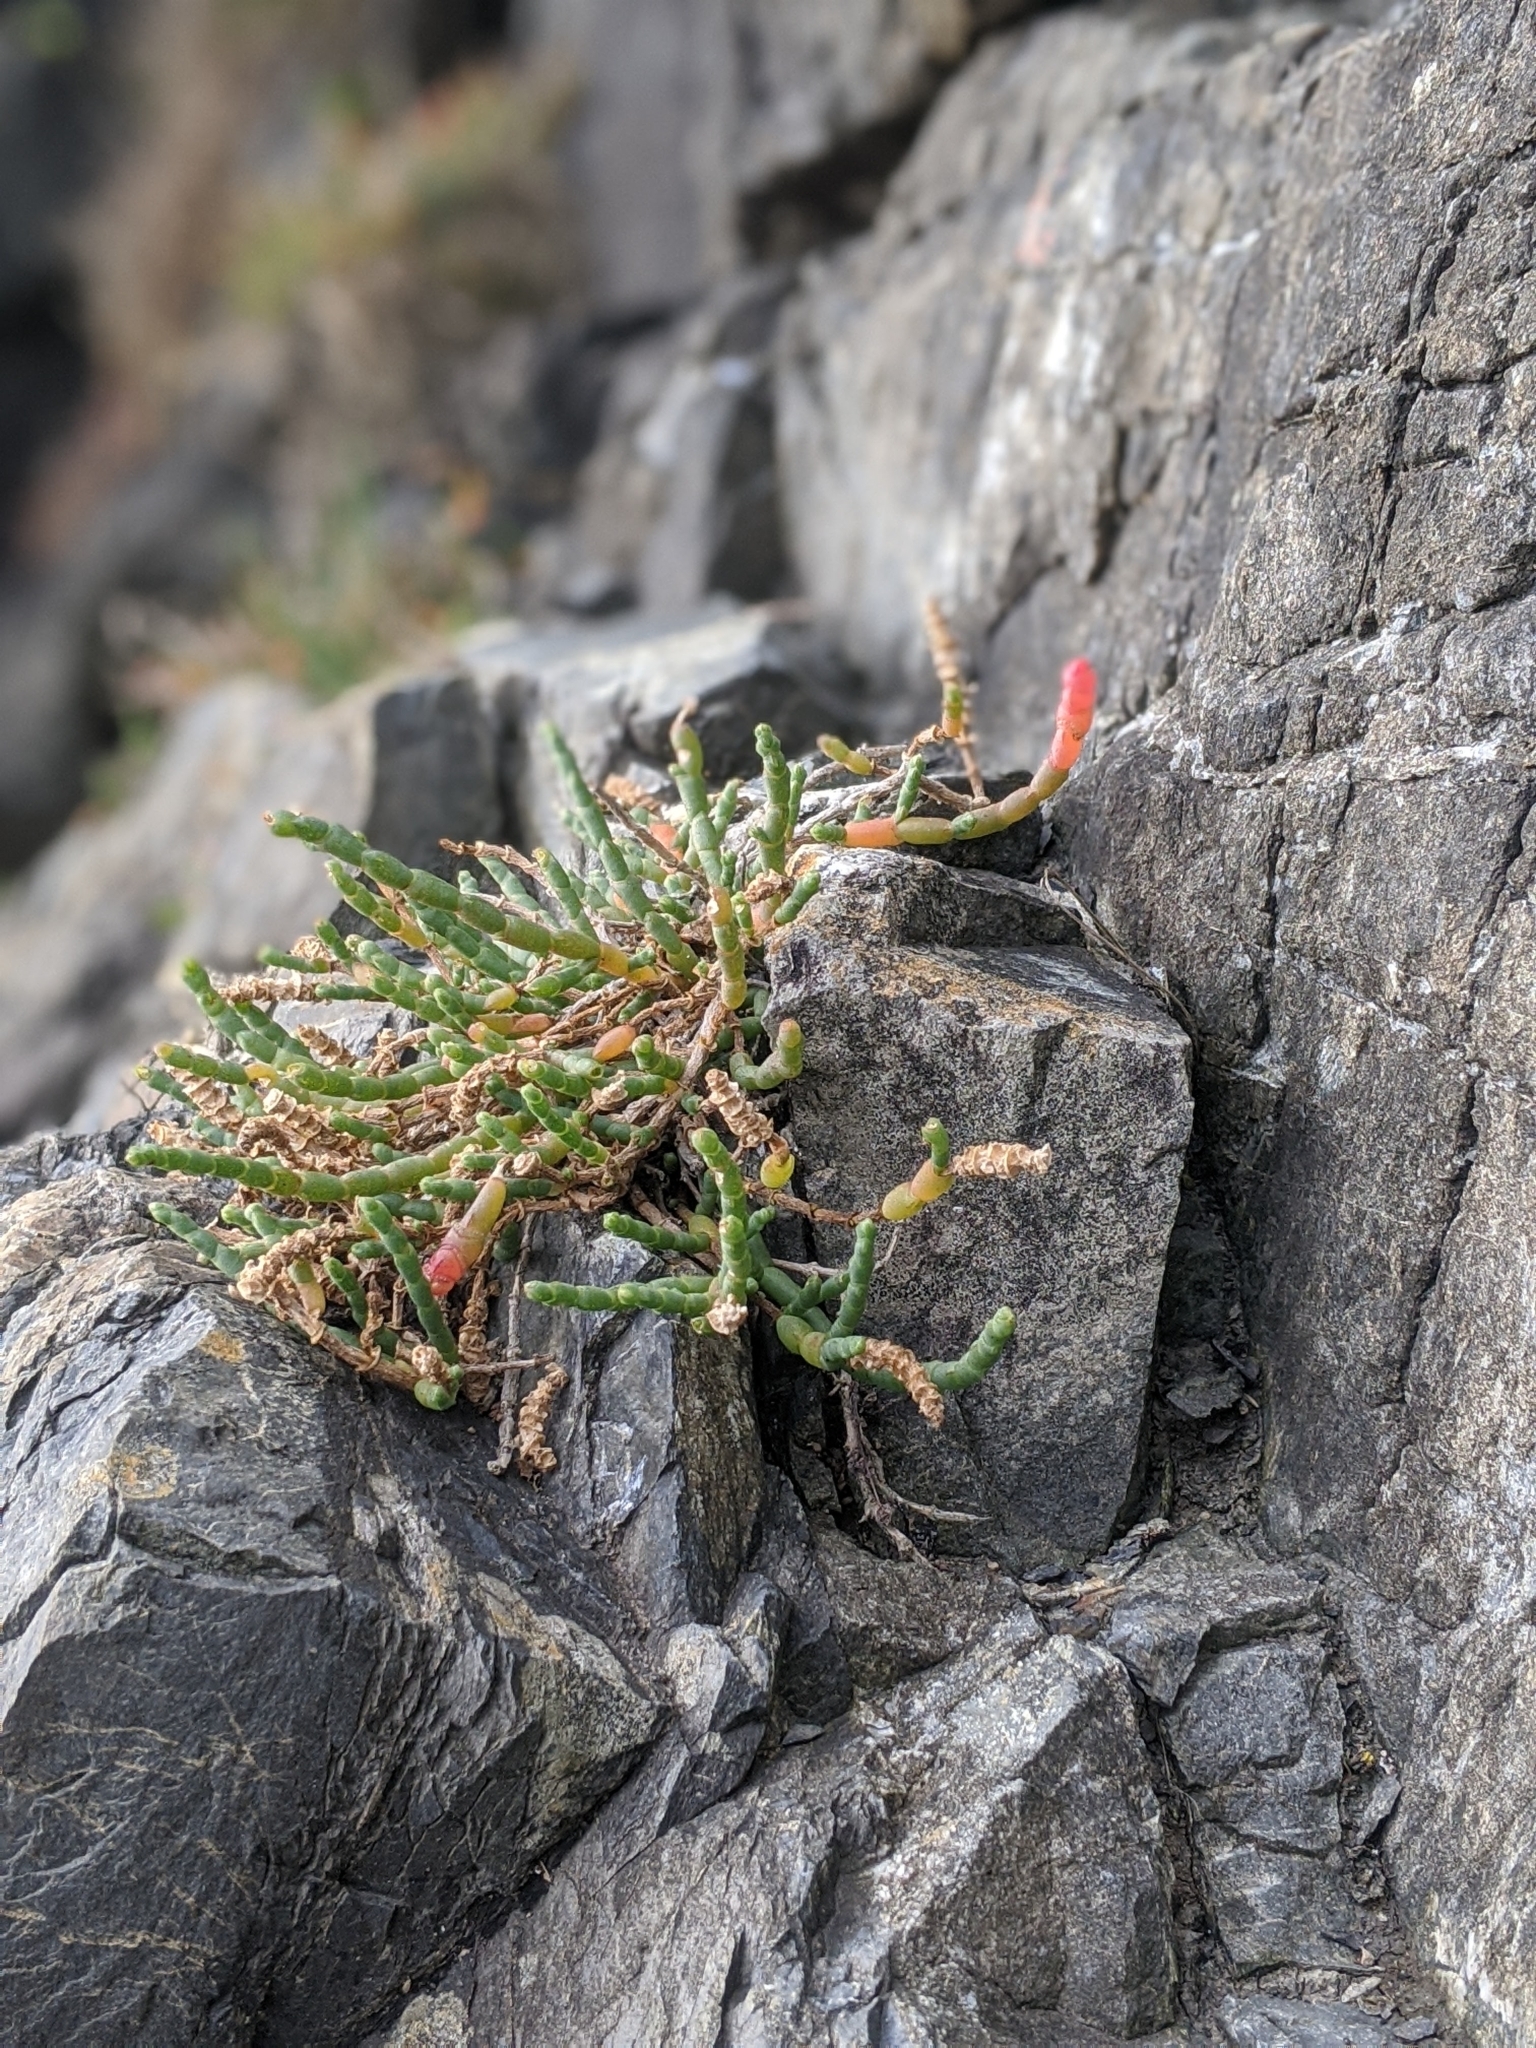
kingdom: Plantae
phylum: Tracheophyta
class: Magnoliopsida
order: Caryophyllales
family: Amaranthaceae
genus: Salicornia
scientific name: Salicornia quinqueflora
